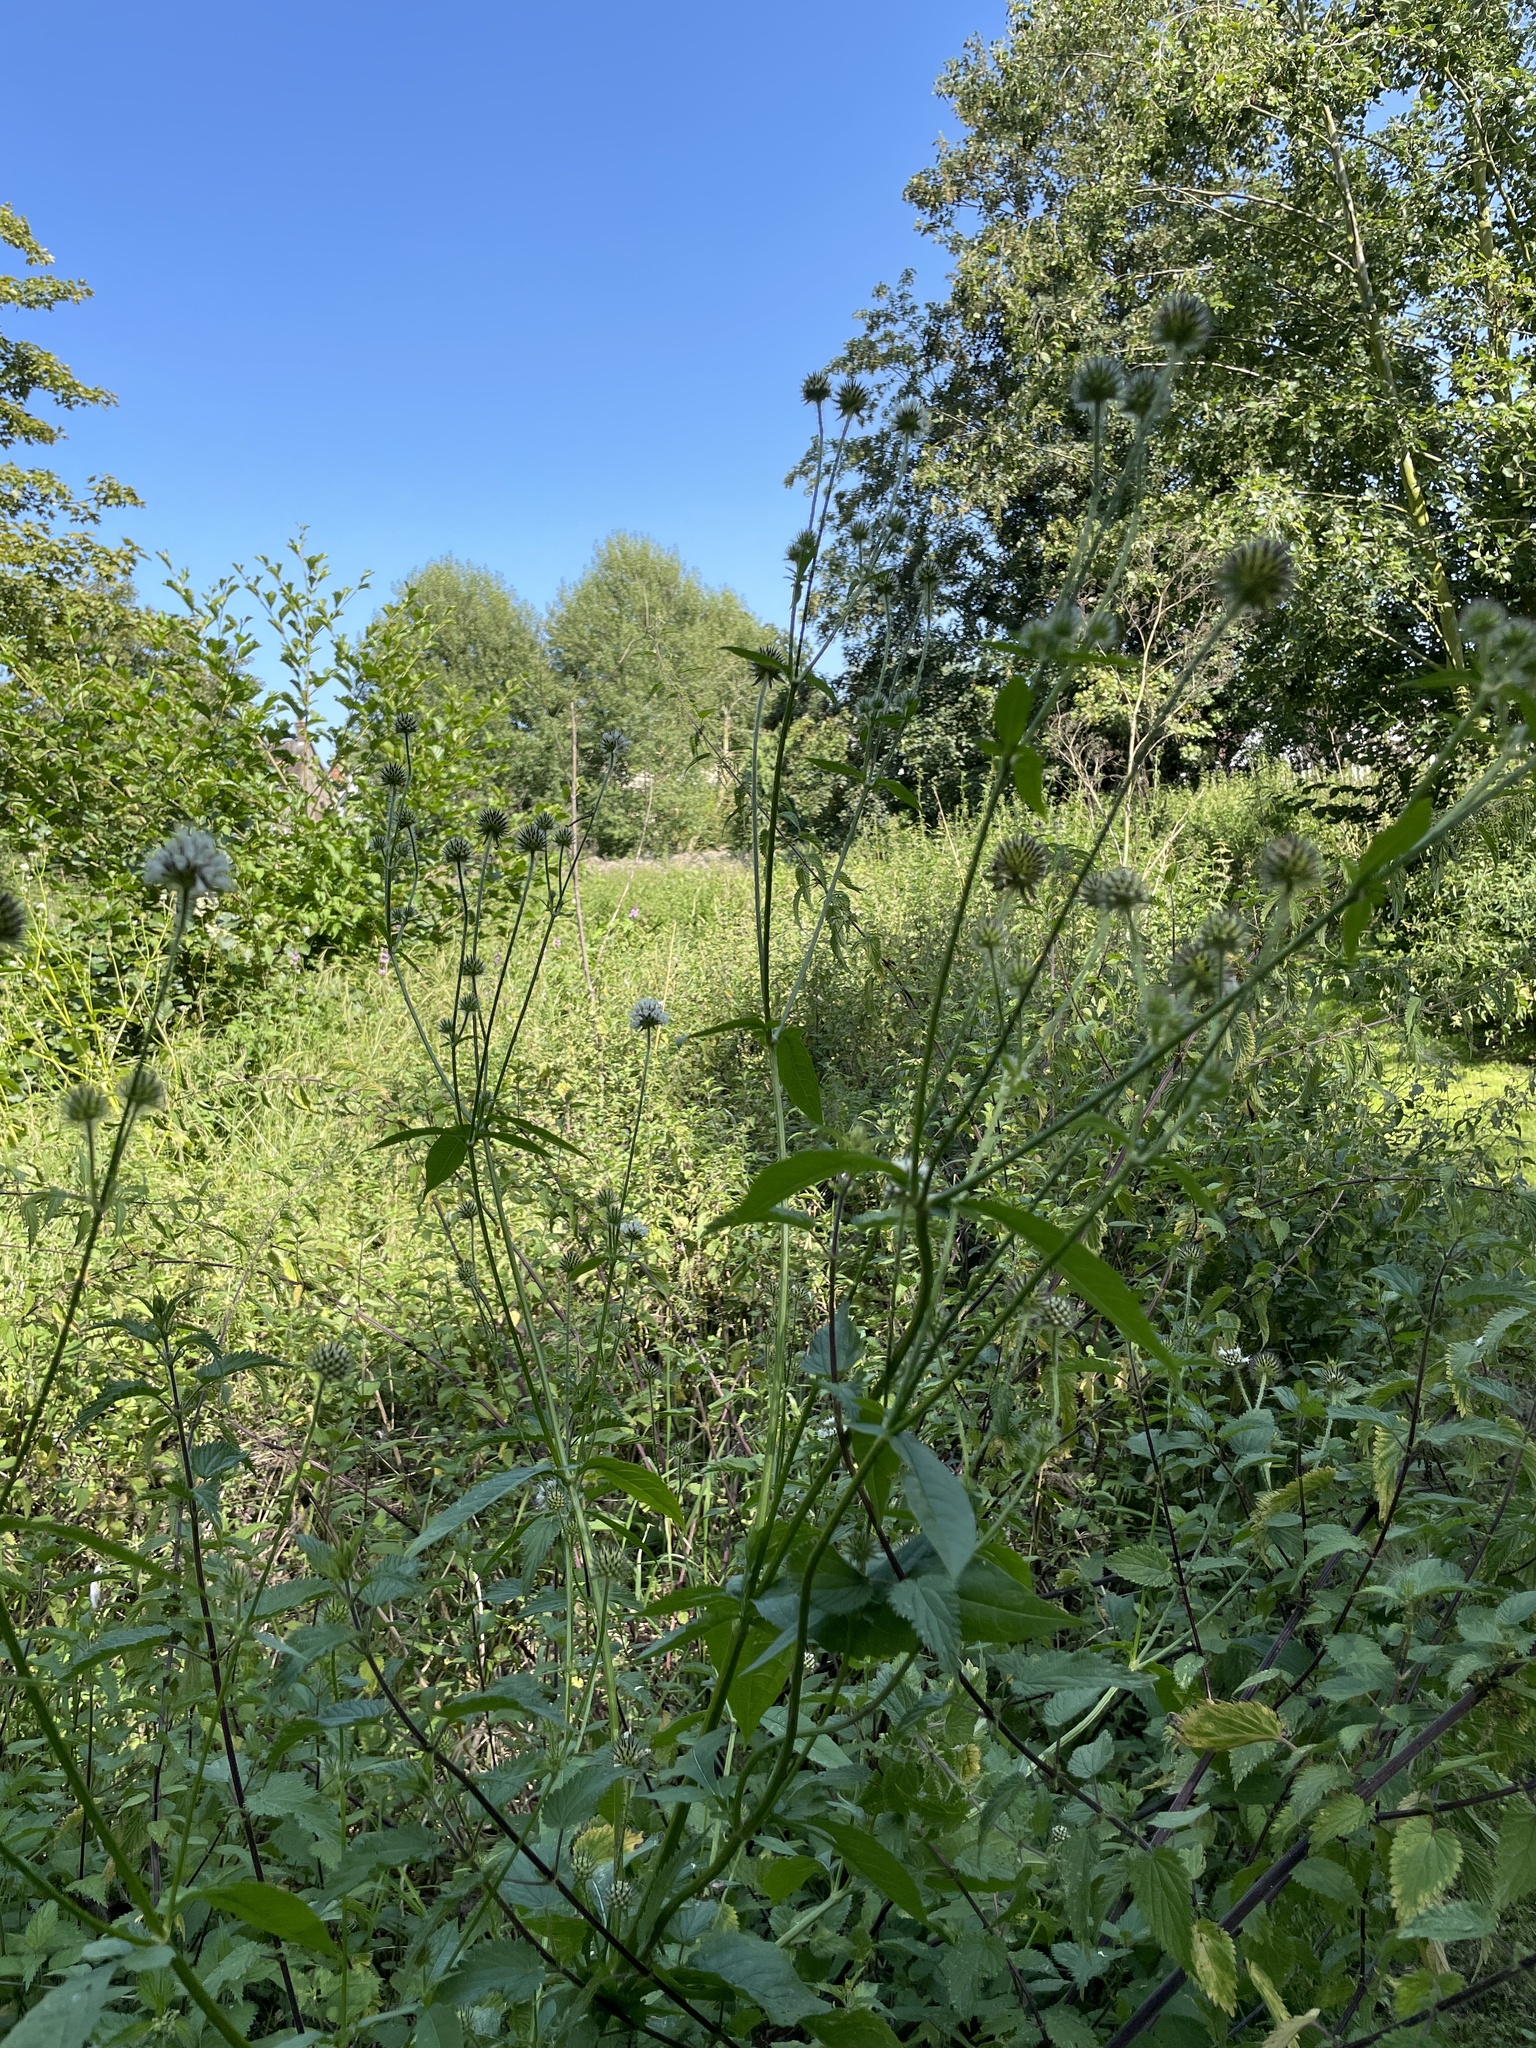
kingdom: Plantae
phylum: Tracheophyta
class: Magnoliopsida
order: Dipsacales
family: Caprifoliaceae
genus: Dipsacus
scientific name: Dipsacus pilosus
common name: Small teasel
